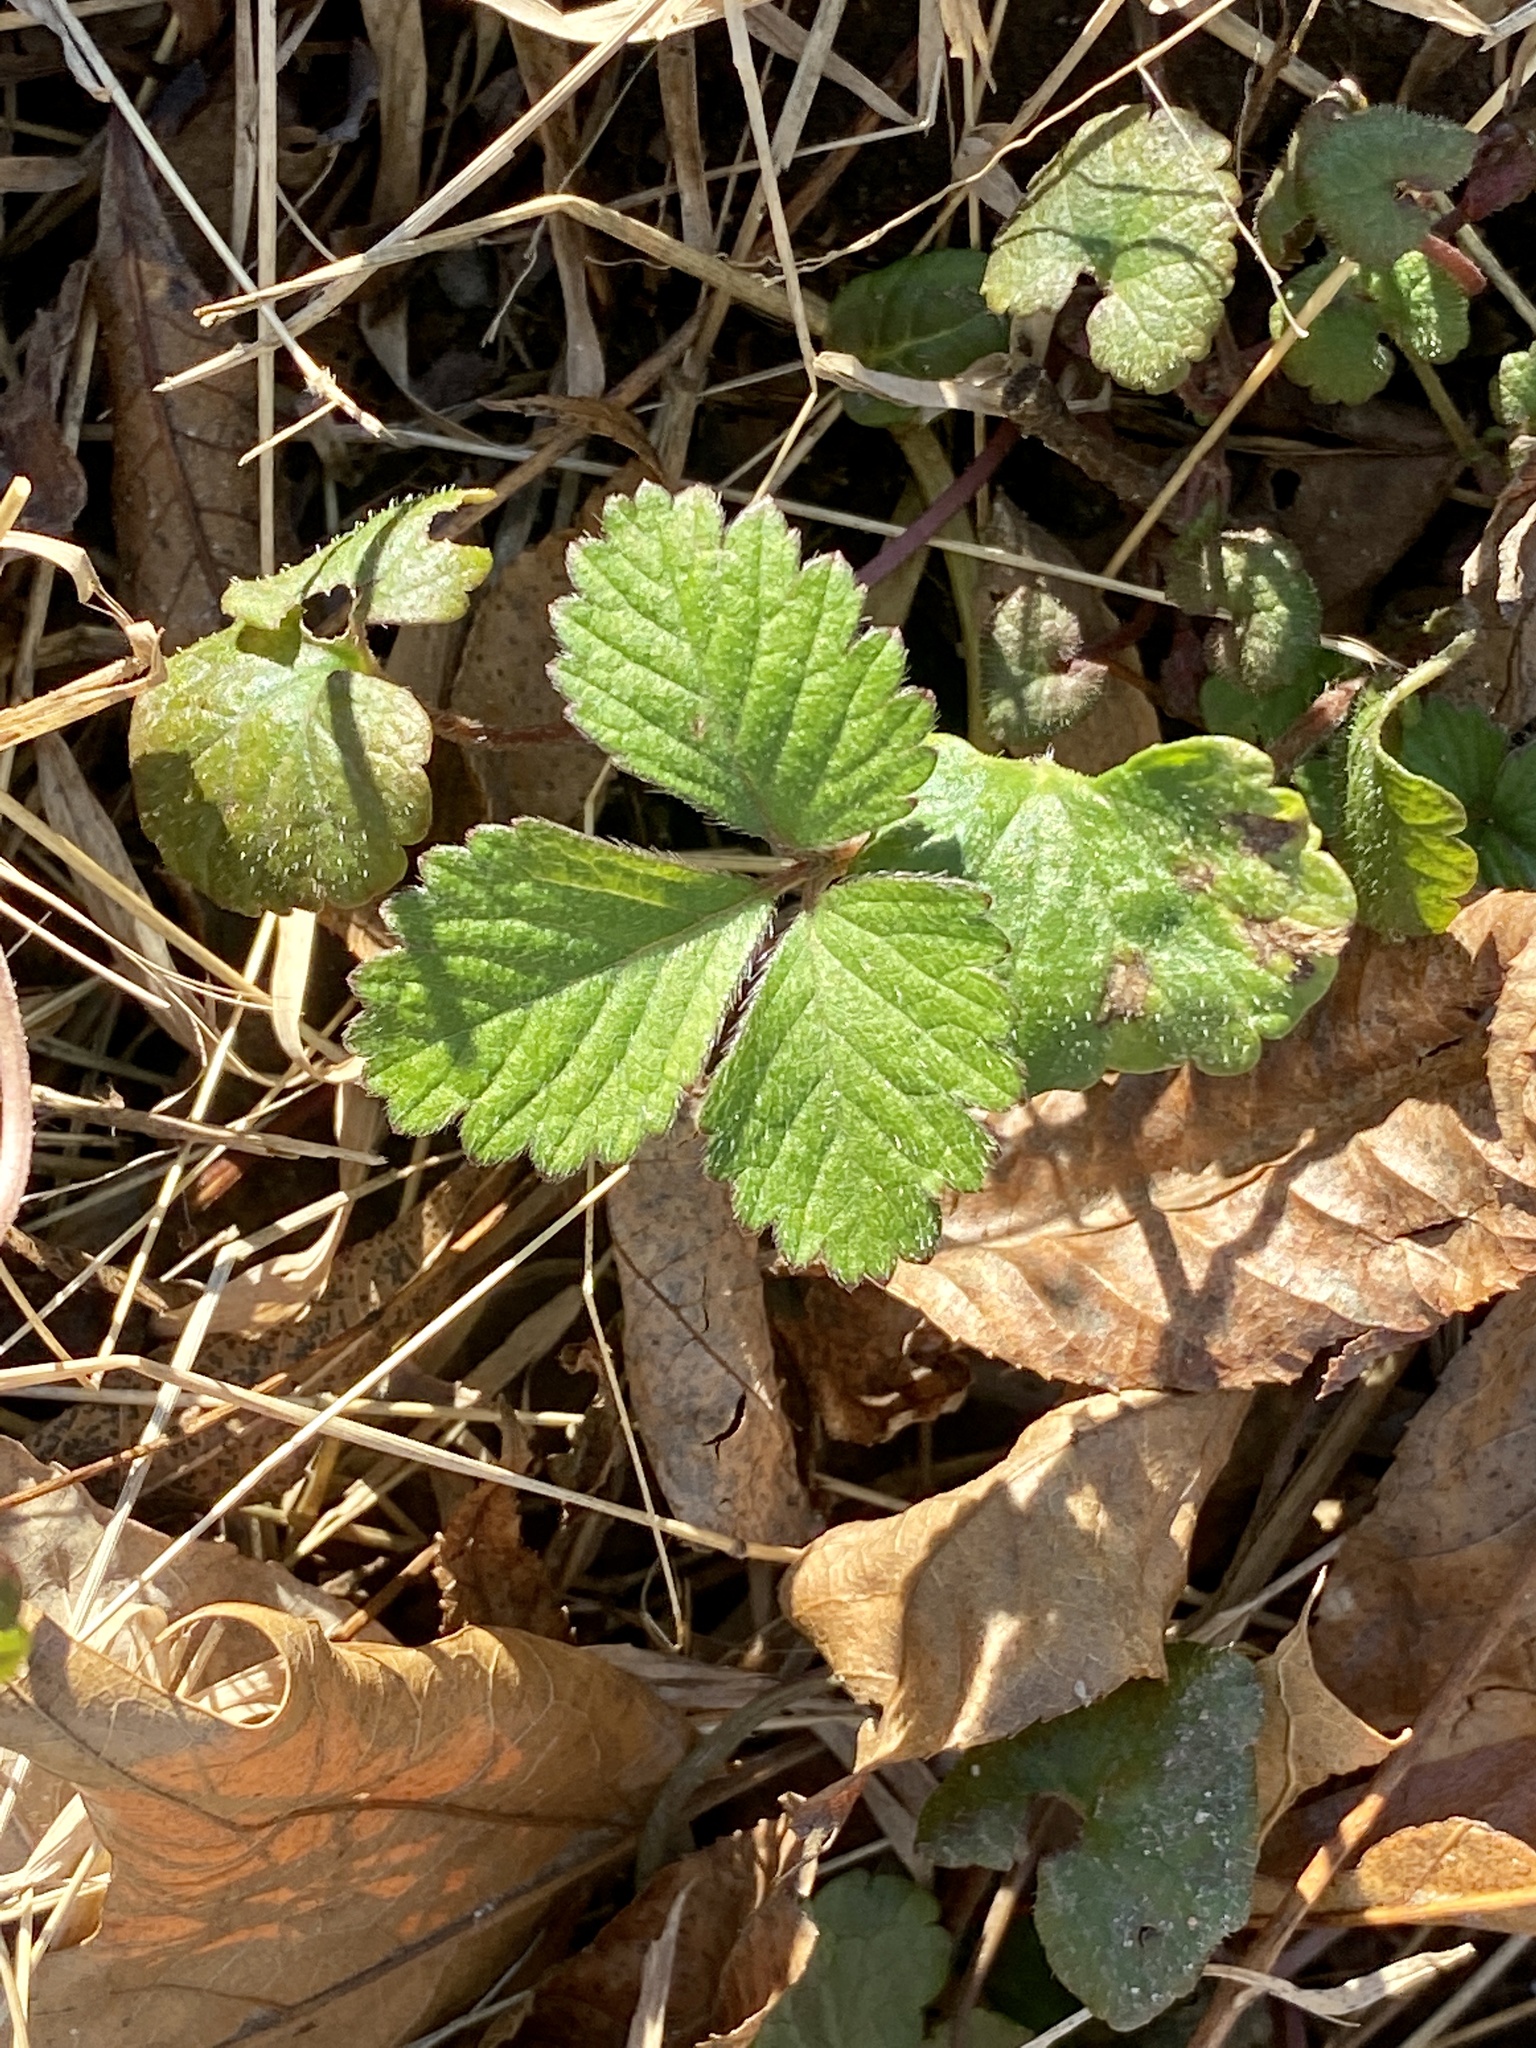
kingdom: Plantae
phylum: Tracheophyta
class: Magnoliopsida
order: Rosales
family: Rosaceae
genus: Potentilla
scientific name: Potentilla indica
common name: Yellow-flowered strawberry
